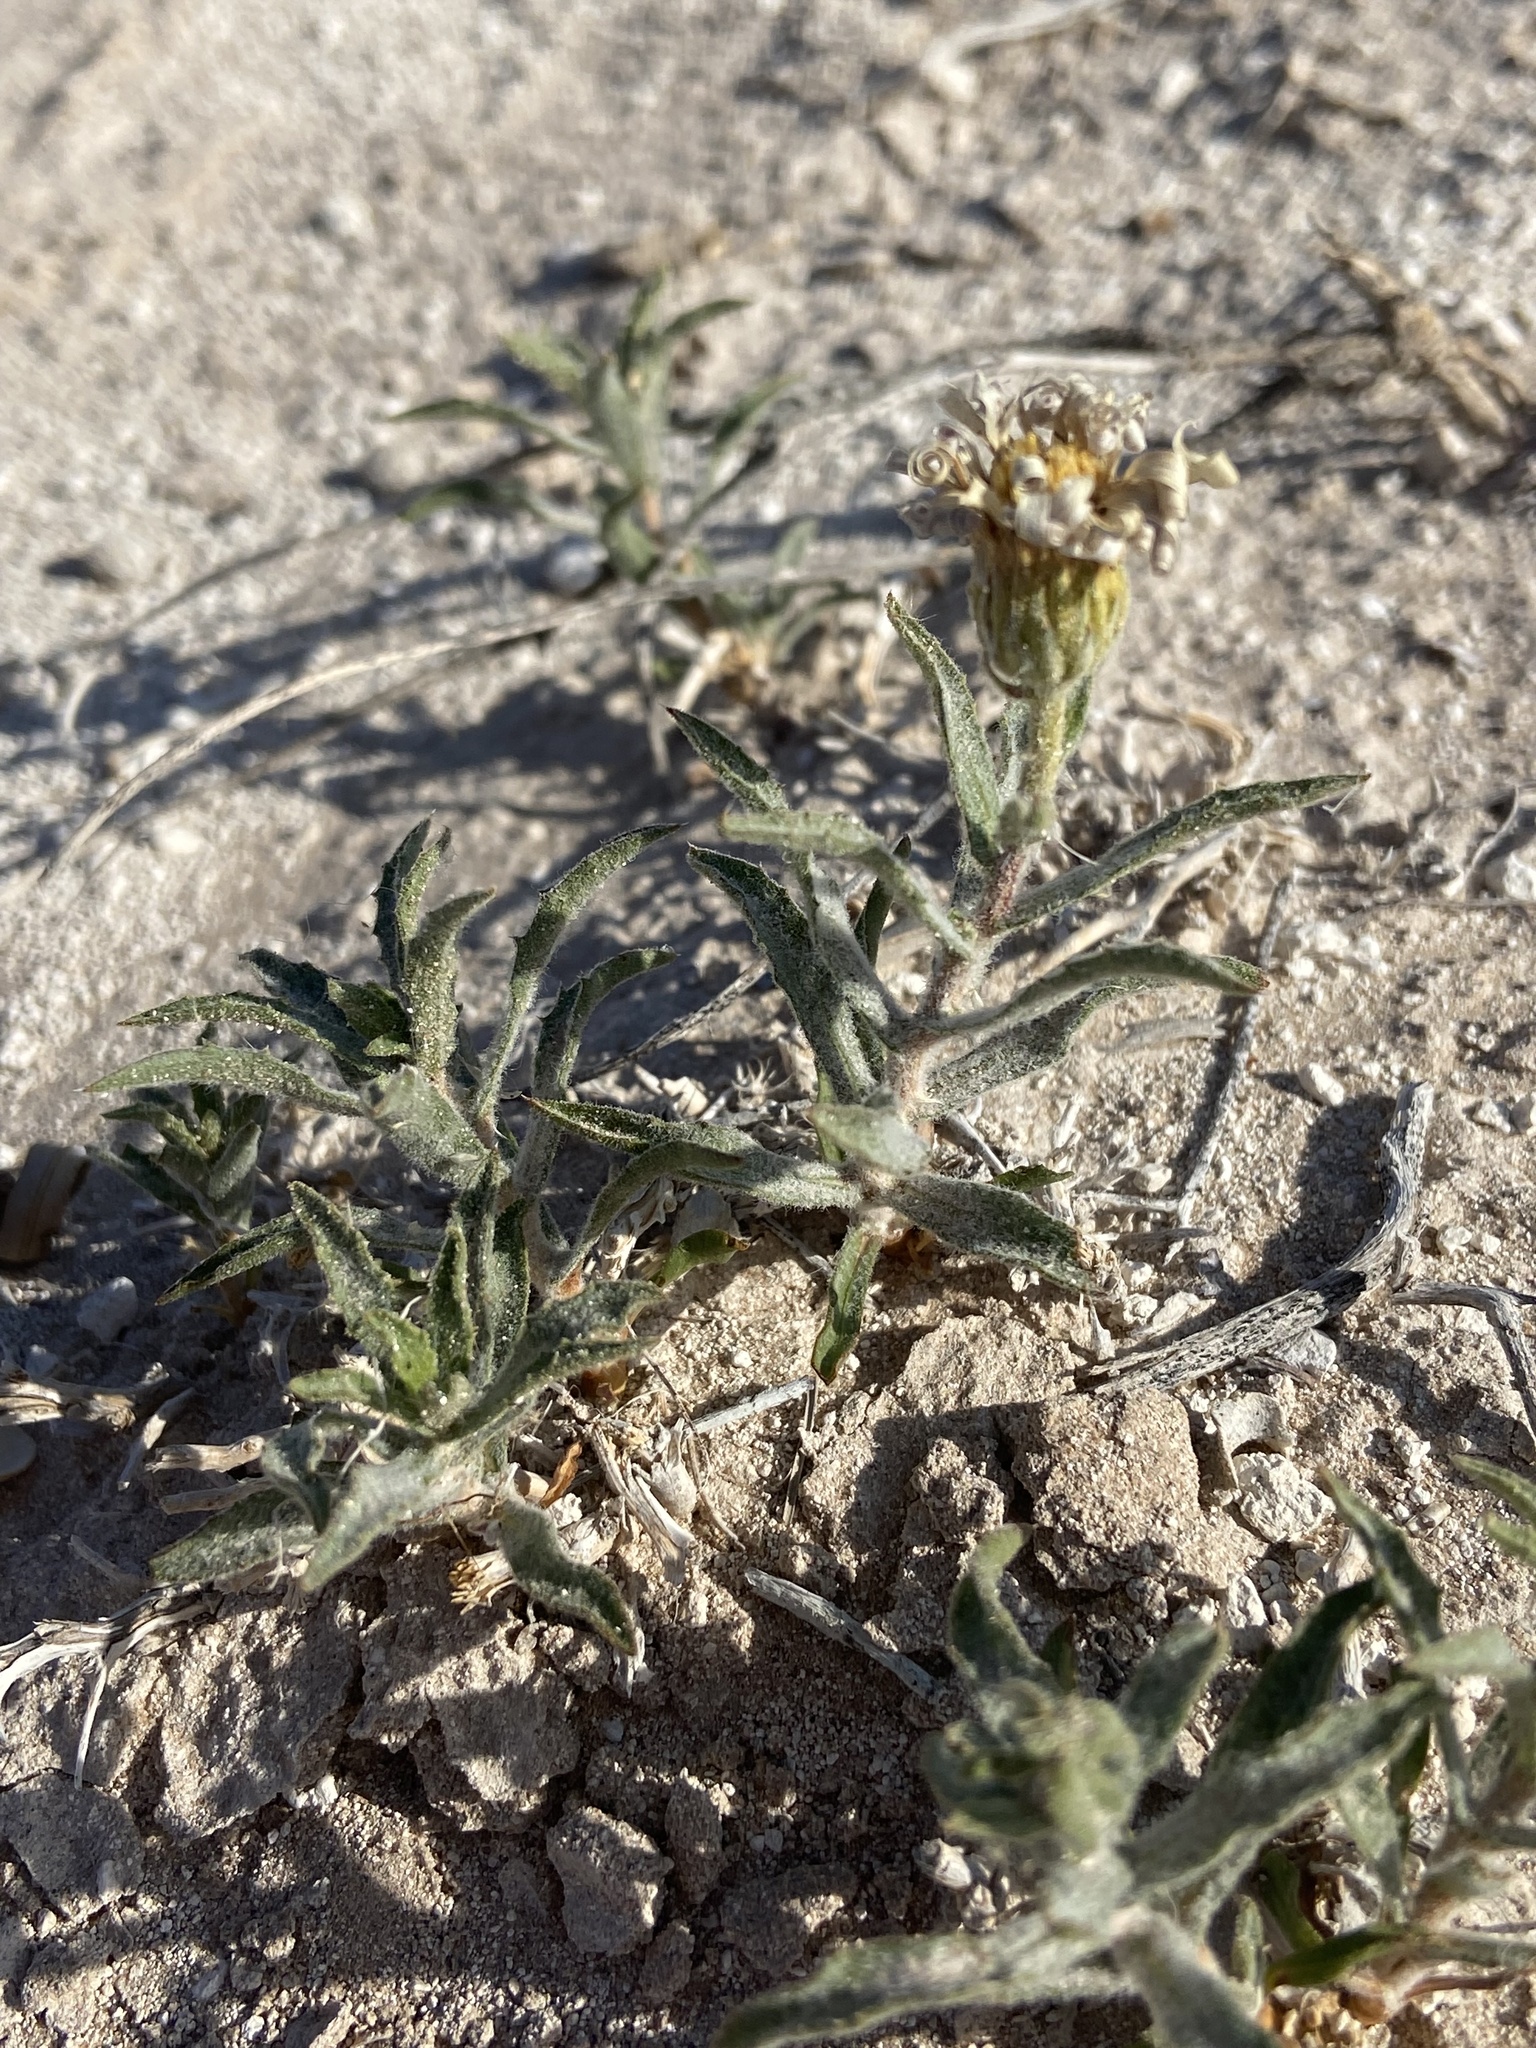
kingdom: Plantae
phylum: Tracheophyta
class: Magnoliopsida
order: Asterales
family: Asteraceae
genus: Xylorhiza
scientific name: Xylorhiza tortifolia
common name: Hurt-leaf woody-aster
